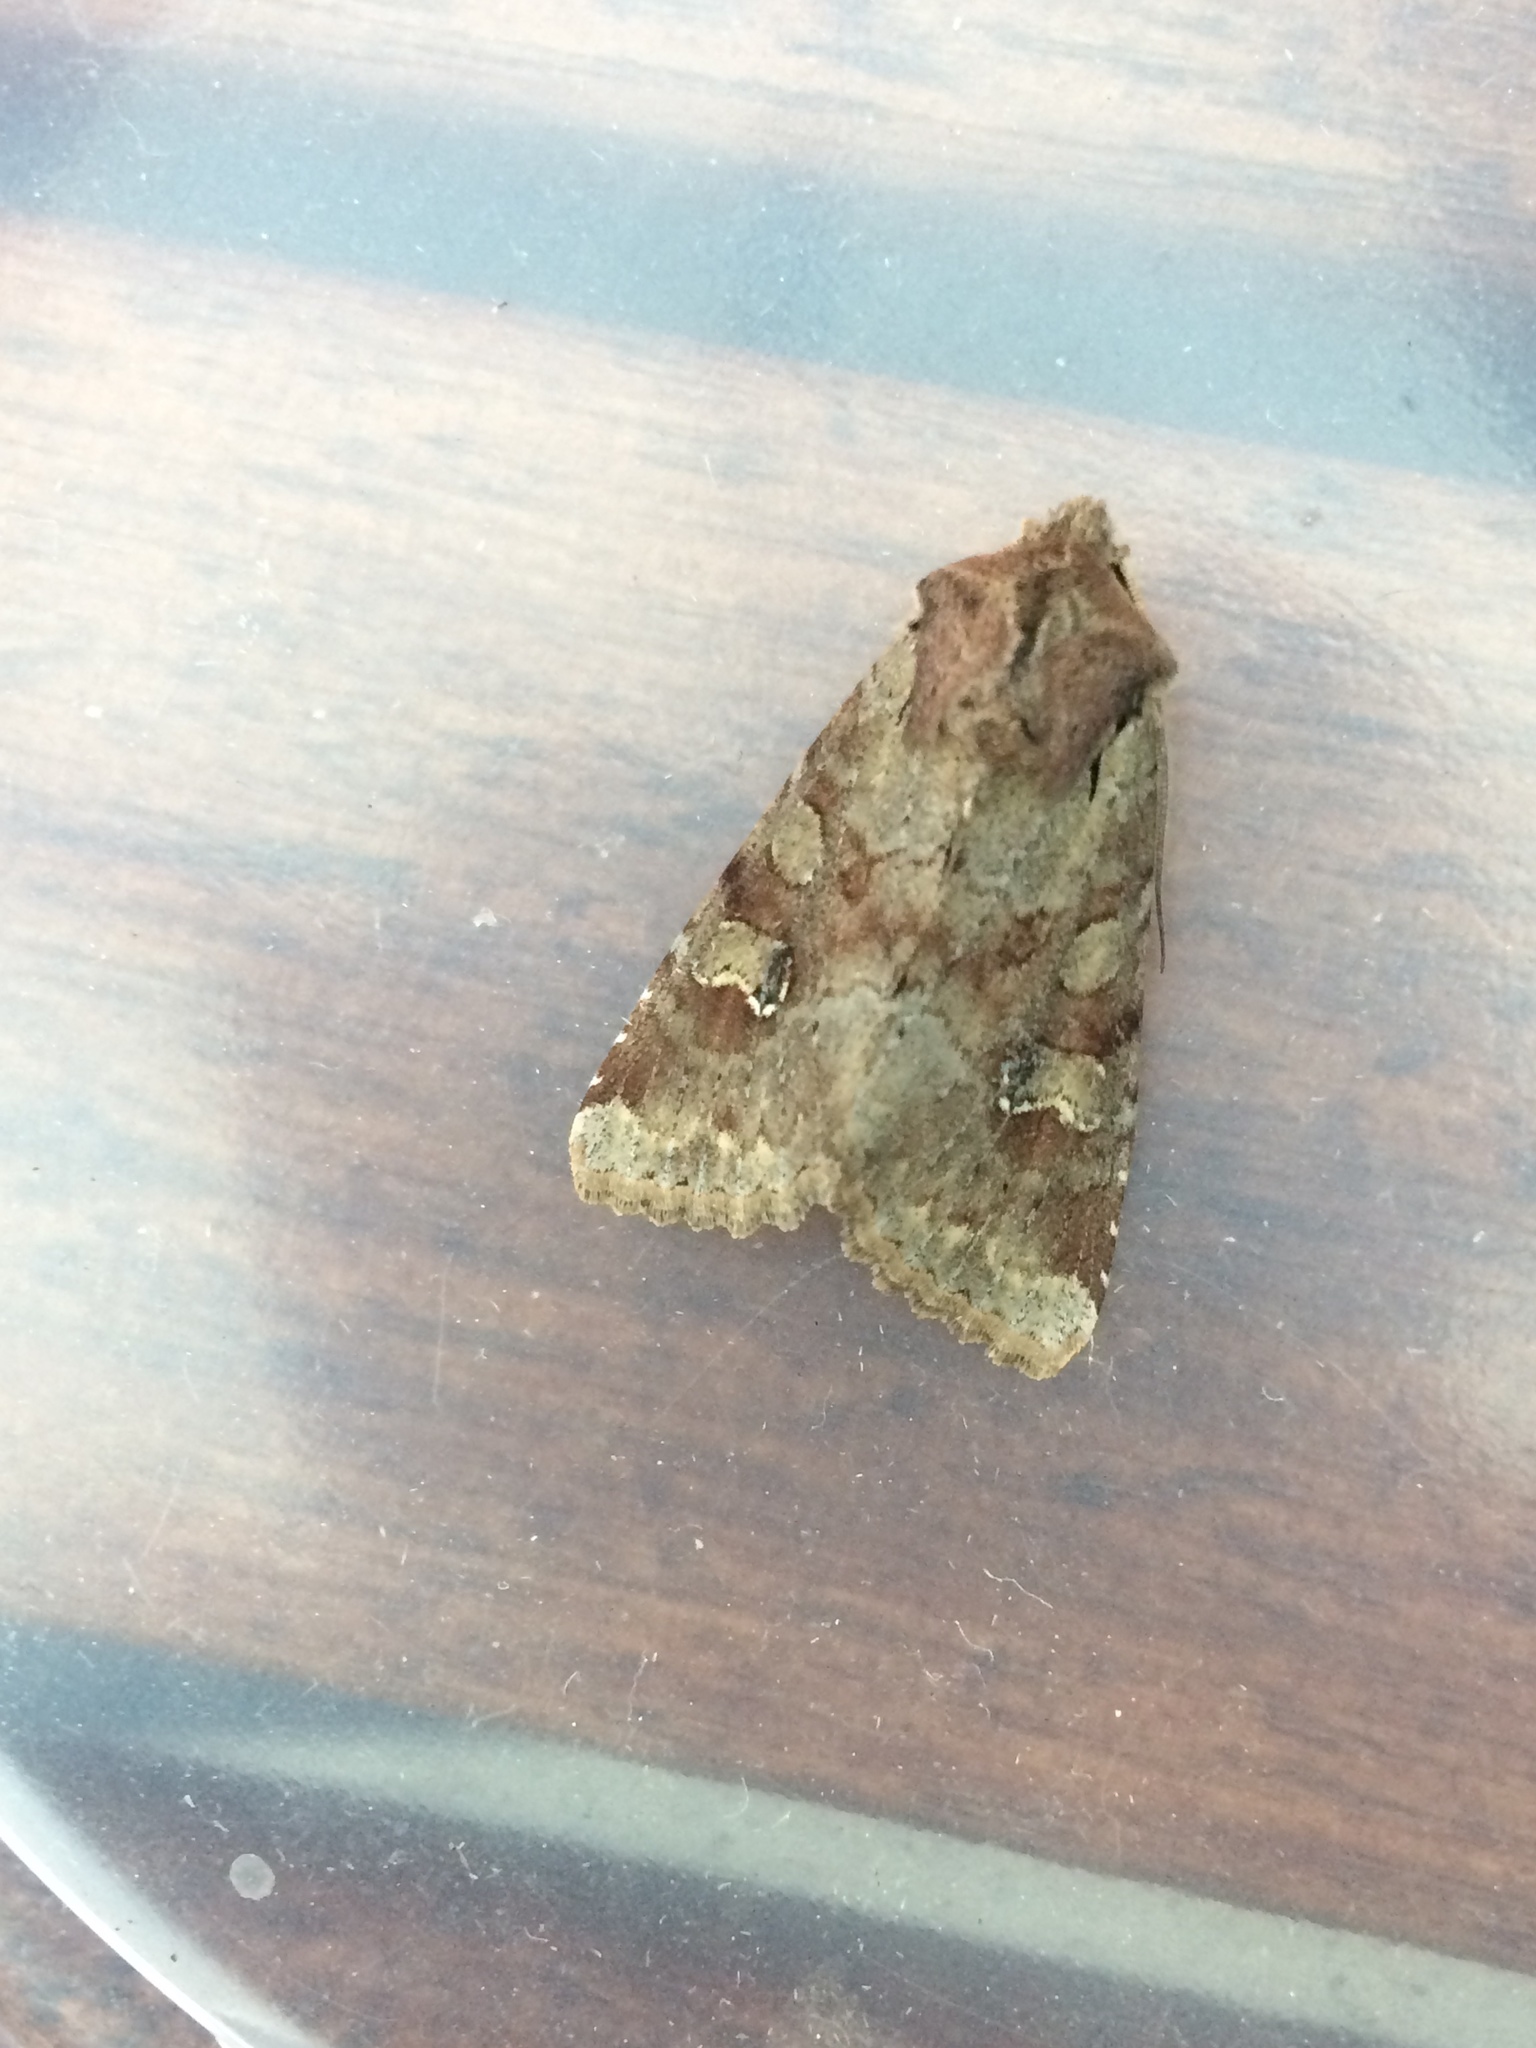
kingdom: Animalia
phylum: Arthropoda
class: Insecta
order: Lepidoptera
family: Noctuidae
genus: Apamea
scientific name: Apamea sordens
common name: Rustic shoulder-knot
